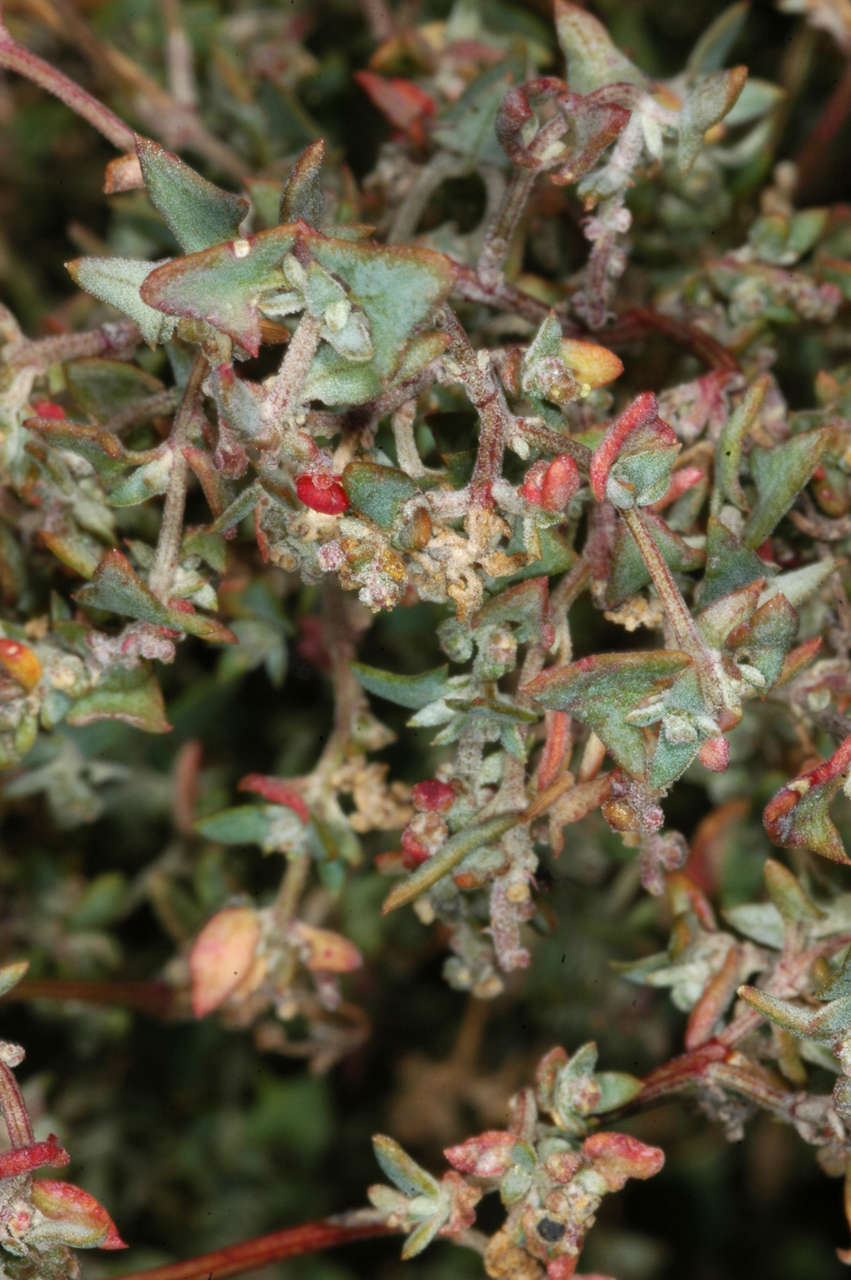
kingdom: Plantae
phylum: Tracheophyta
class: Magnoliopsida
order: Caryophyllales
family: Amaranthaceae
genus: Chenopodium
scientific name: Chenopodium nutans
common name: Climbing-saltbush
